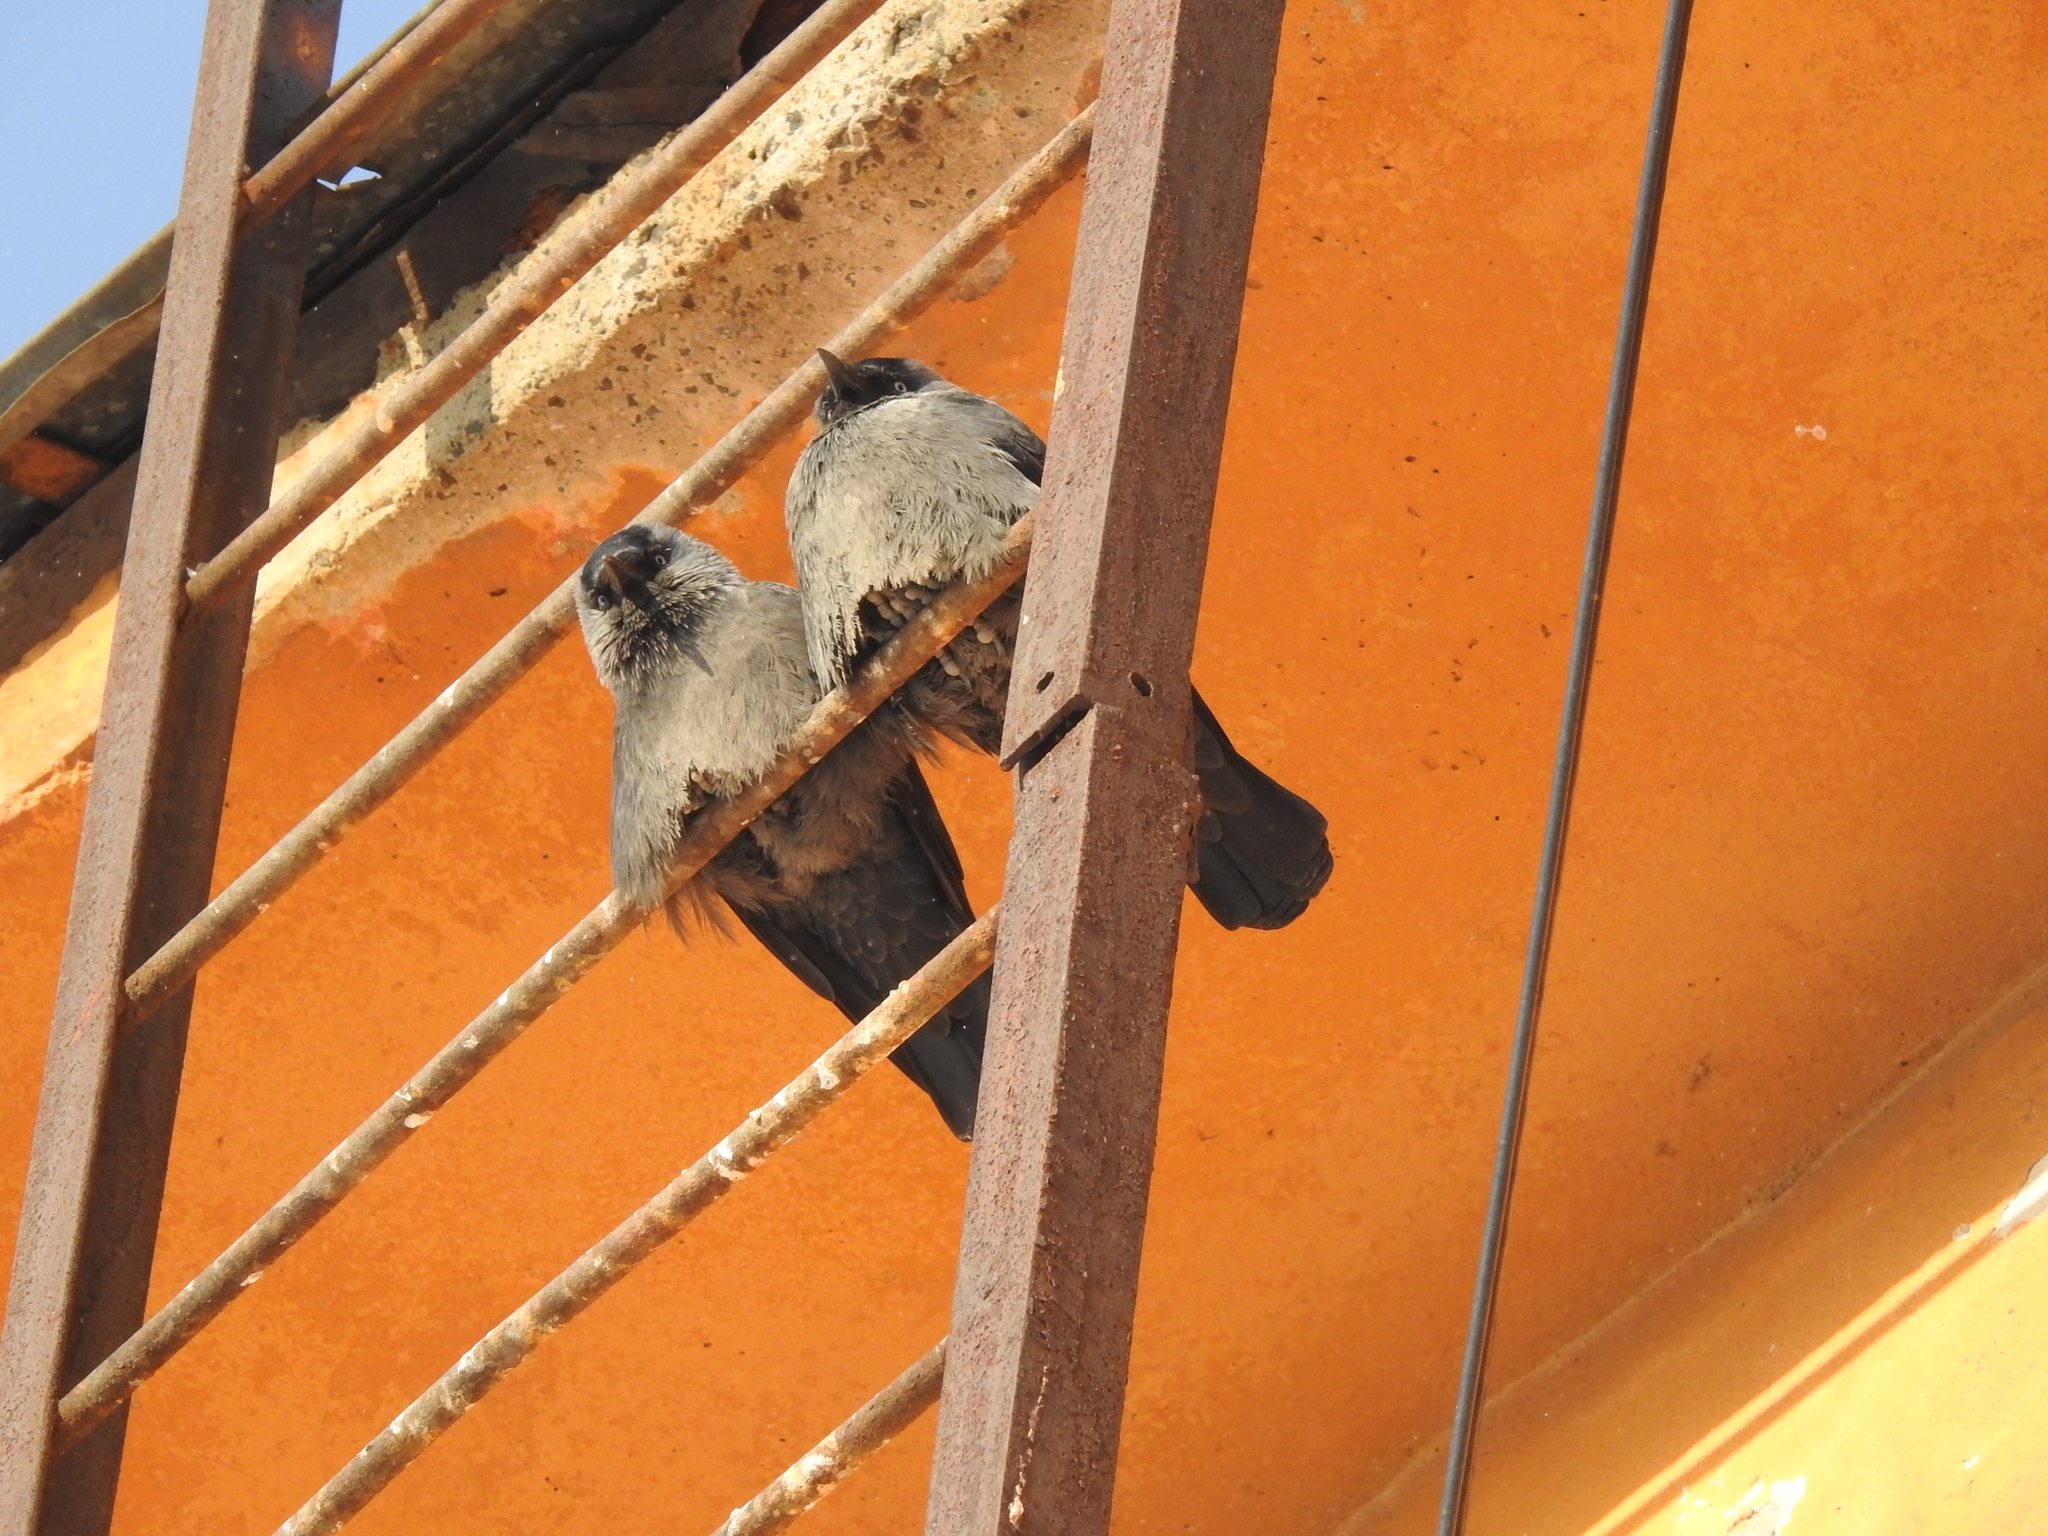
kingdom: Animalia
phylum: Chordata
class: Aves
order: Passeriformes
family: Corvidae
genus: Coloeus
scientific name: Coloeus monedula
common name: Western jackdaw
